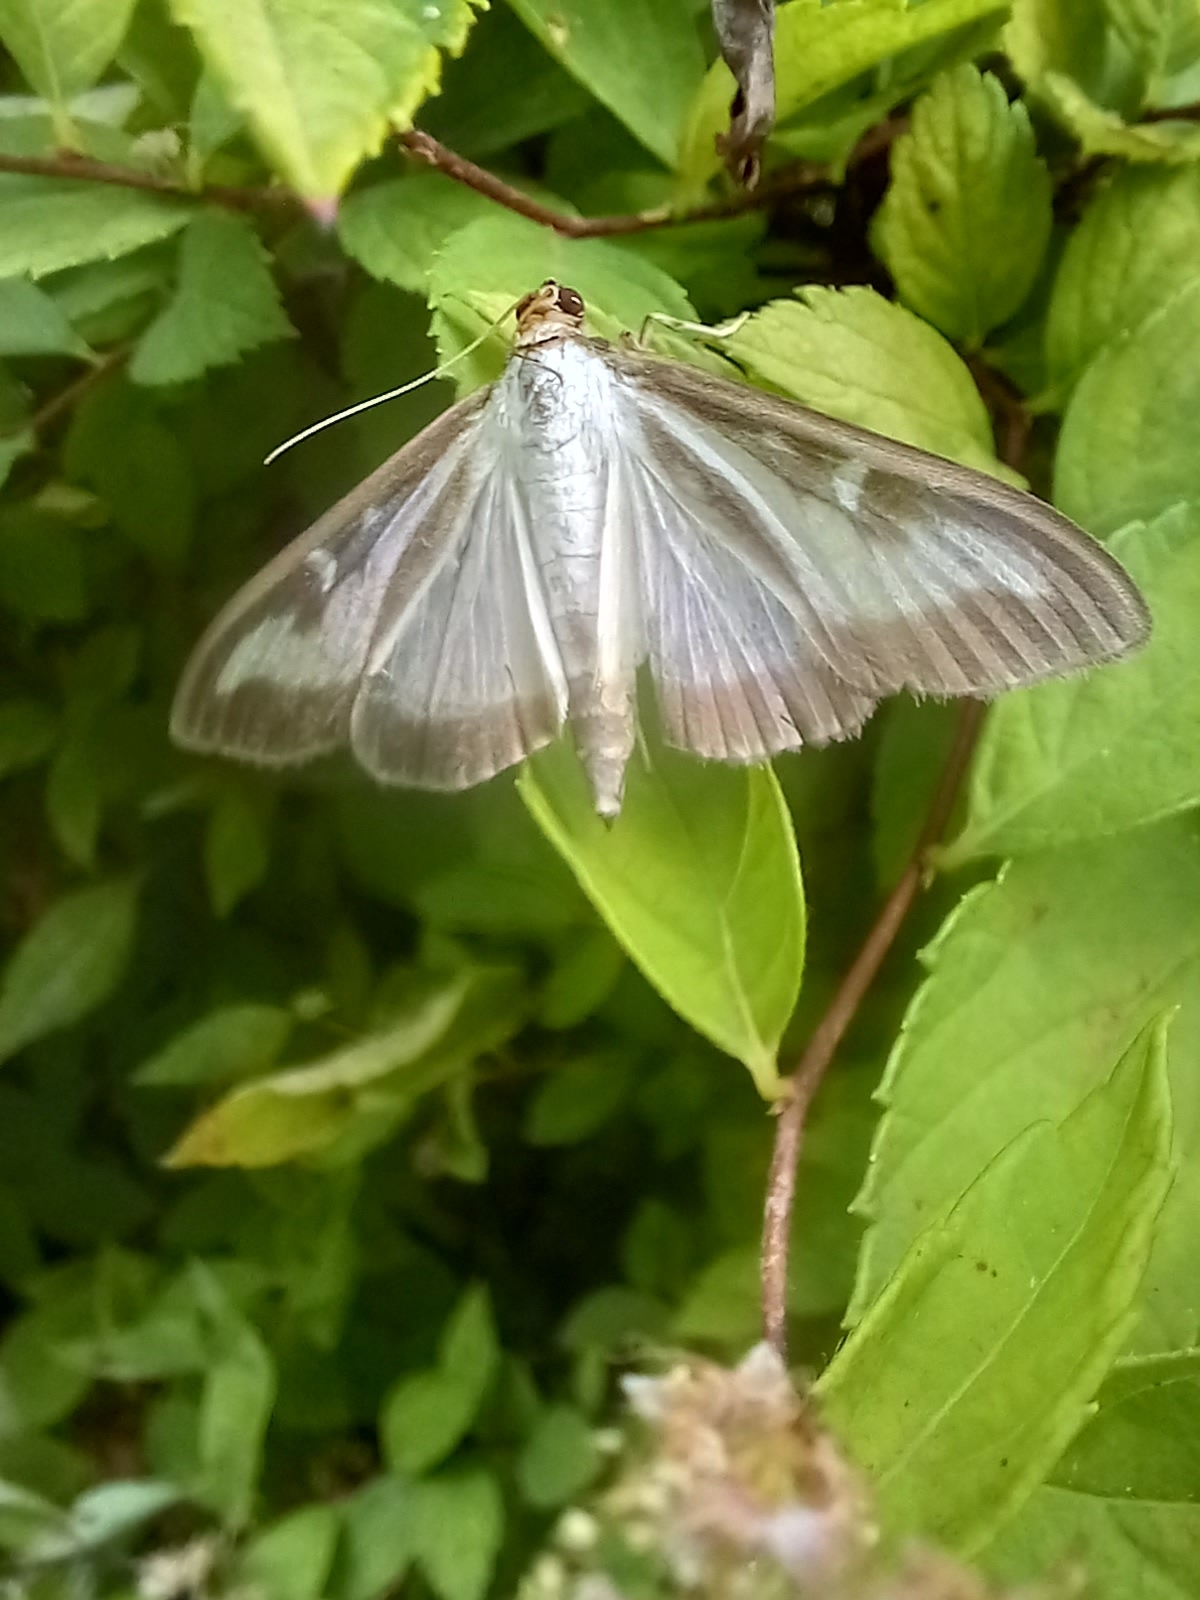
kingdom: Animalia
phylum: Arthropoda
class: Insecta
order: Lepidoptera
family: Crambidae
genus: Cydalima
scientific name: Cydalima perspectalis
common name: Box tree moth
